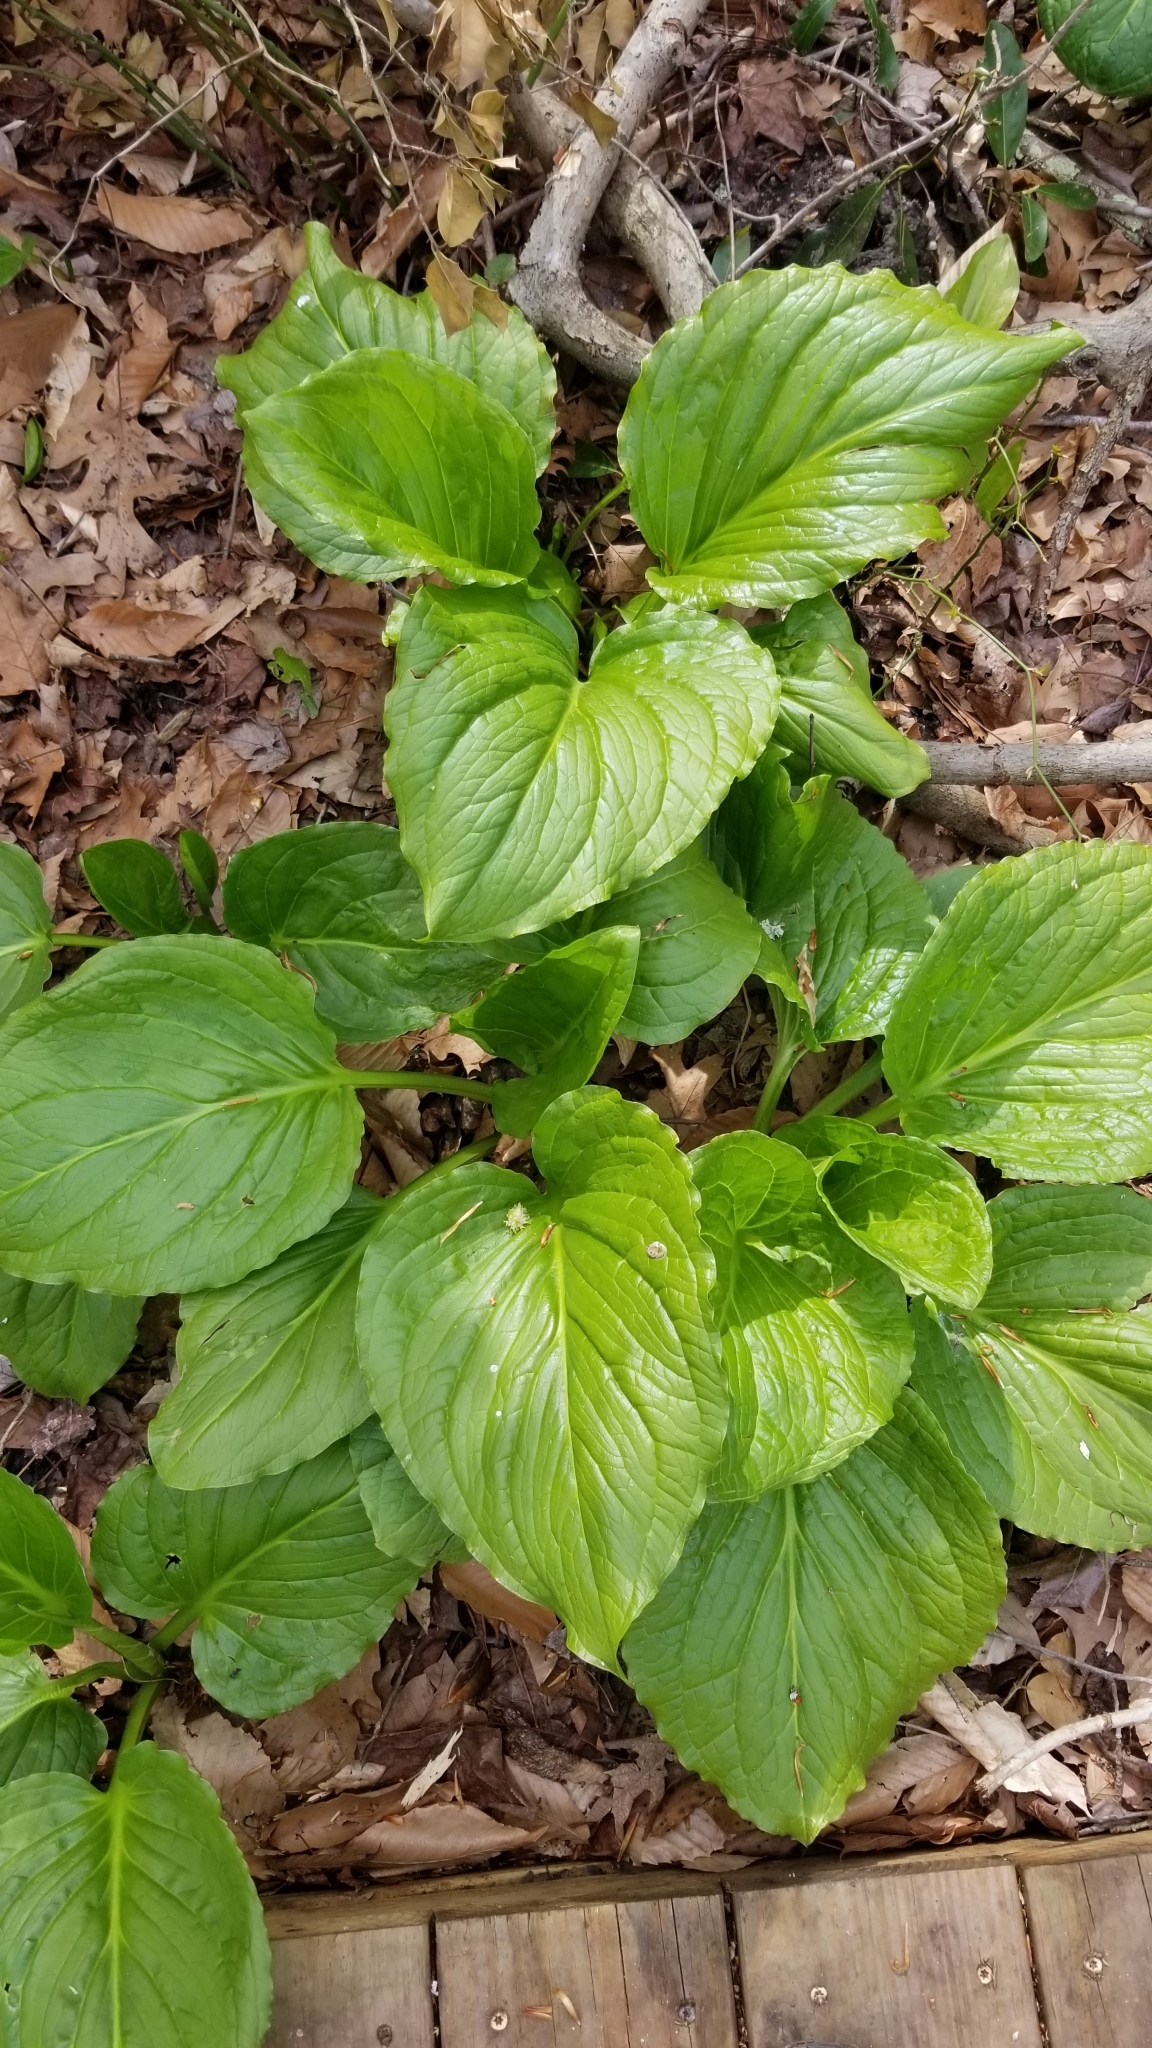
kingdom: Plantae
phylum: Tracheophyta
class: Liliopsida
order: Alismatales
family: Araceae
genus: Symplocarpus
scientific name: Symplocarpus foetidus
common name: Eastern skunk cabbage
